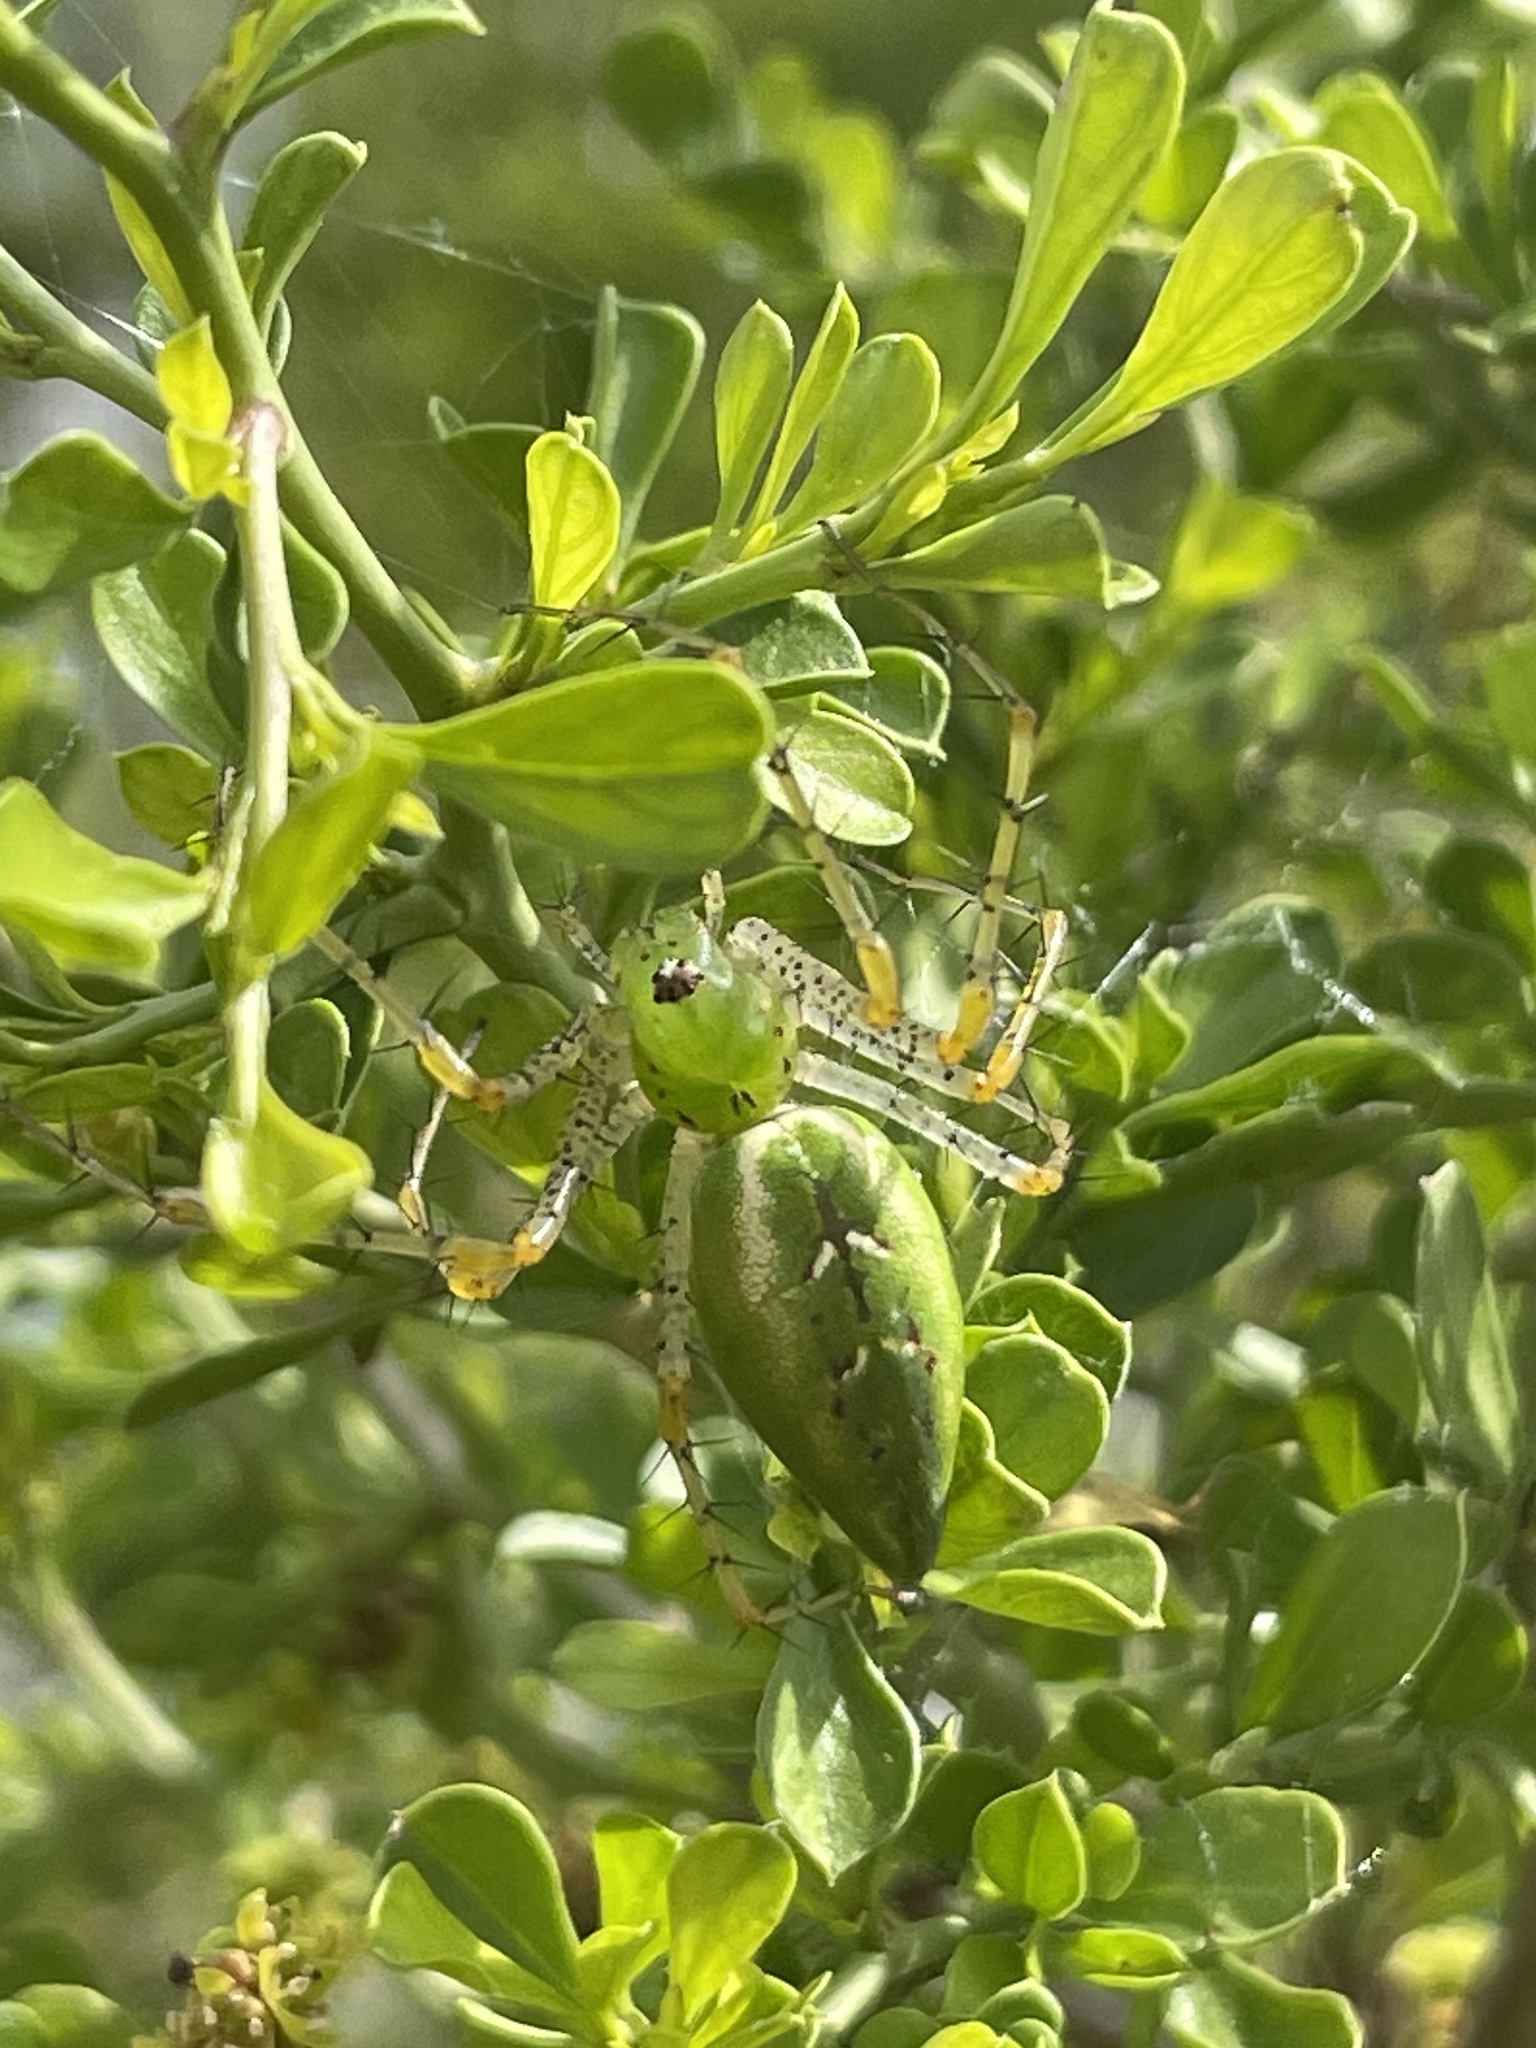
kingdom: Animalia
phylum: Arthropoda
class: Arachnida
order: Araneae
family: Oxyopidae
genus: Peucetia
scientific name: Peucetia viridans
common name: Lynx spiders
